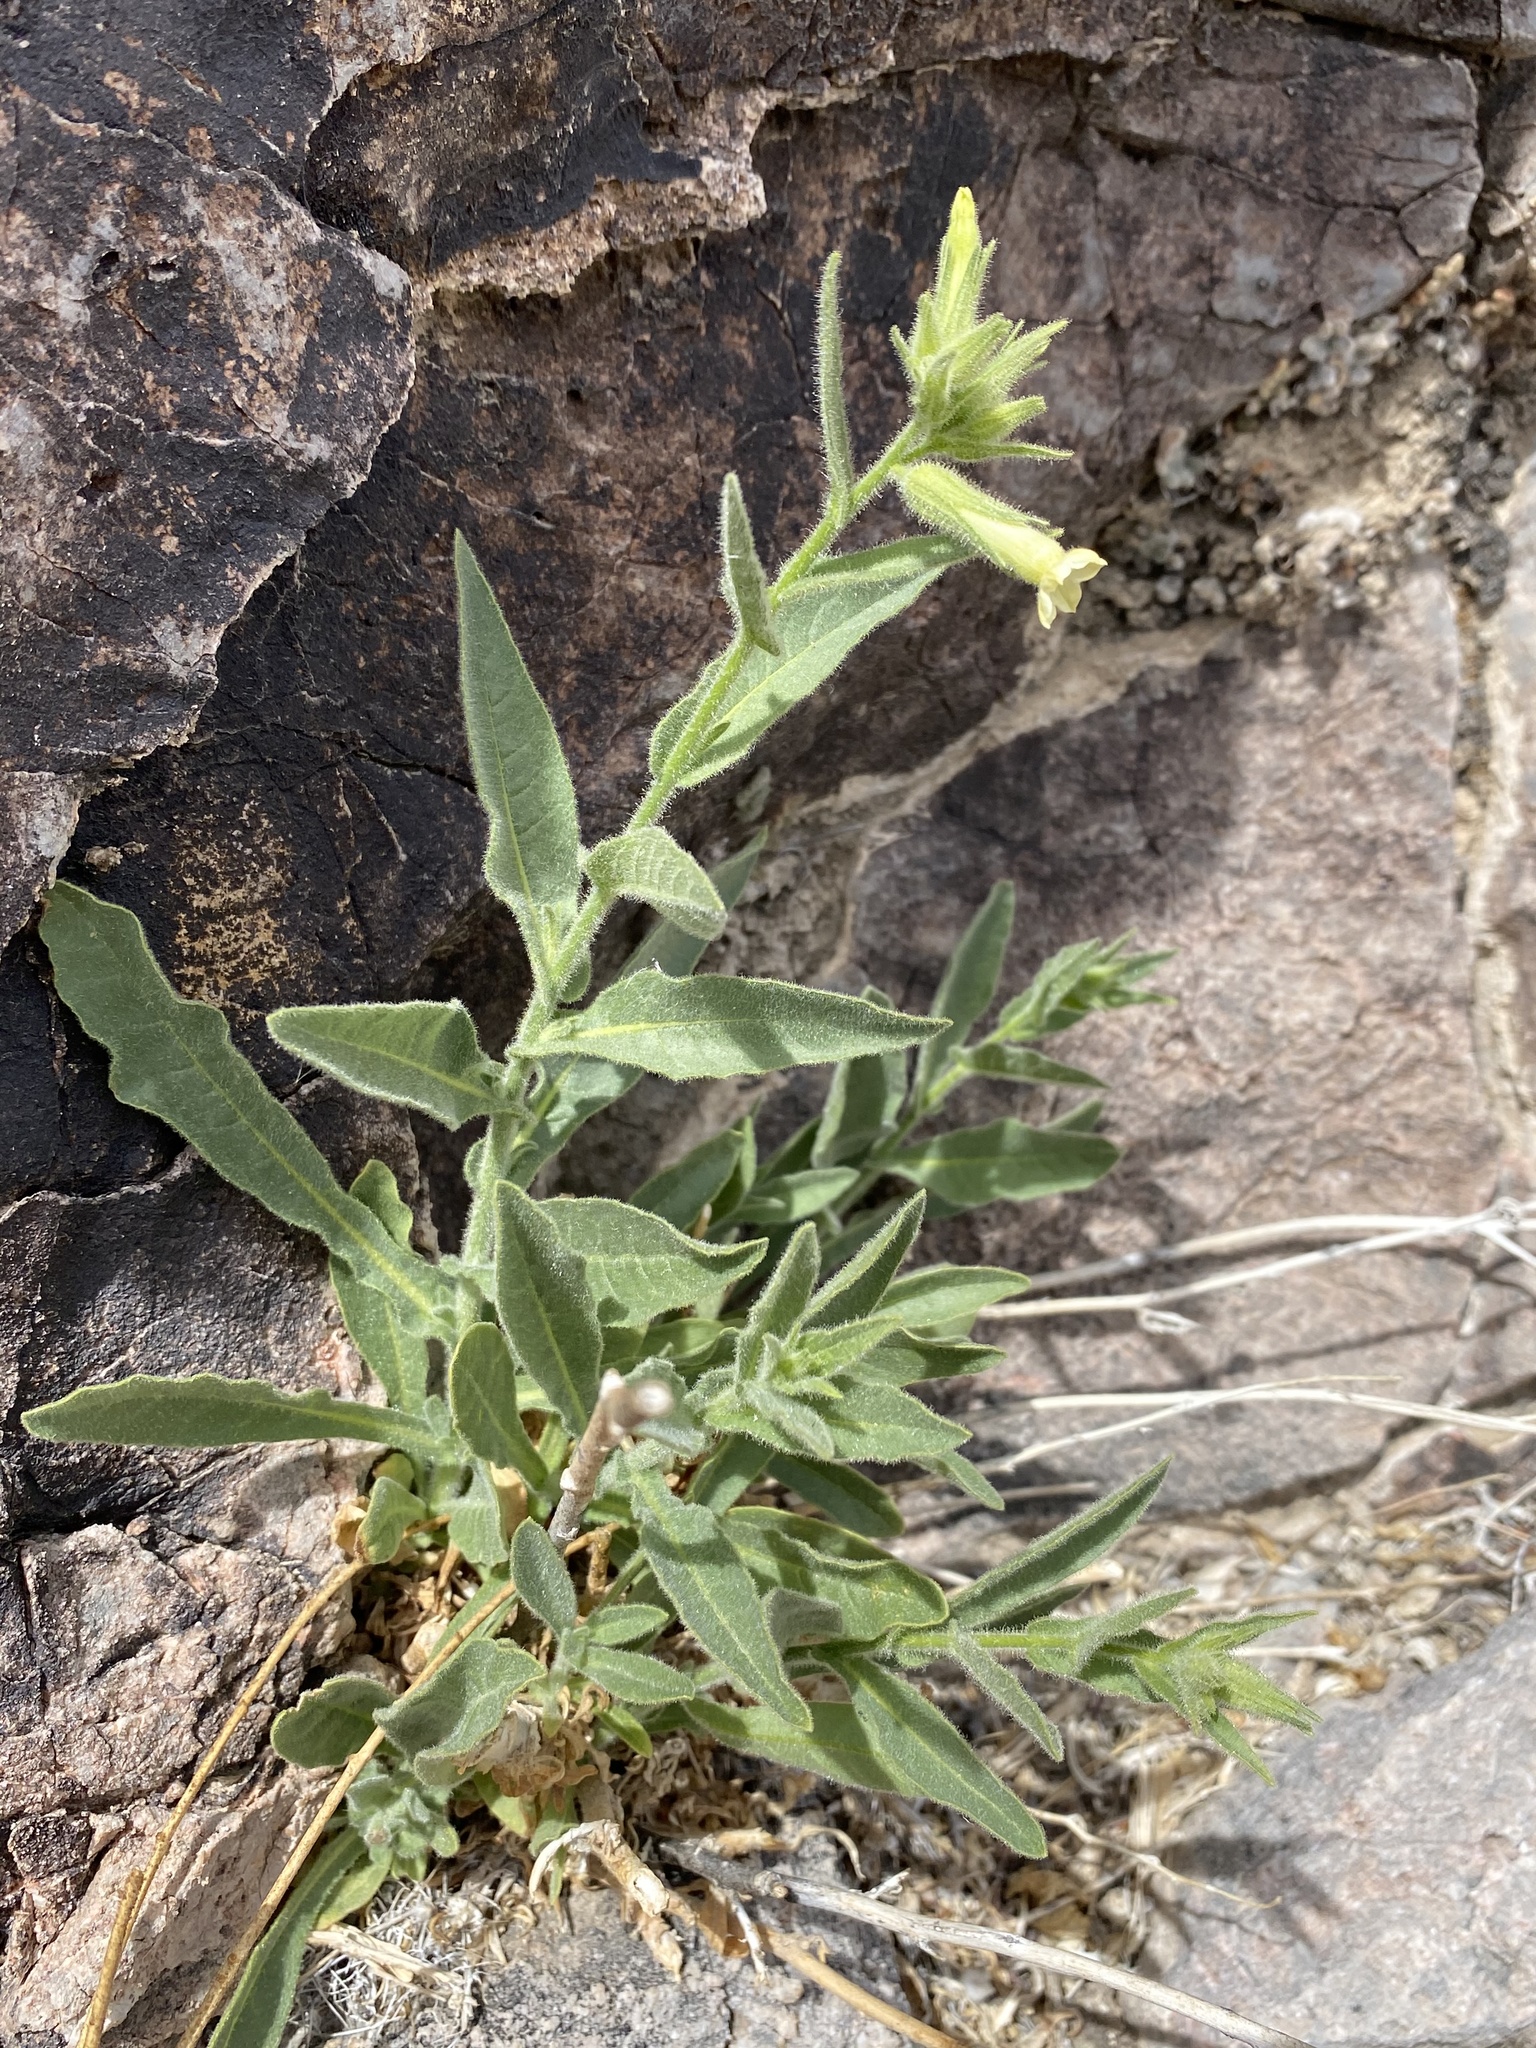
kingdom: Plantae
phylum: Tracheophyta
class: Magnoliopsida
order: Solanales
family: Solanaceae
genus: Nicotiana
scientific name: Nicotiana obtusifolia
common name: Desert tobacco
